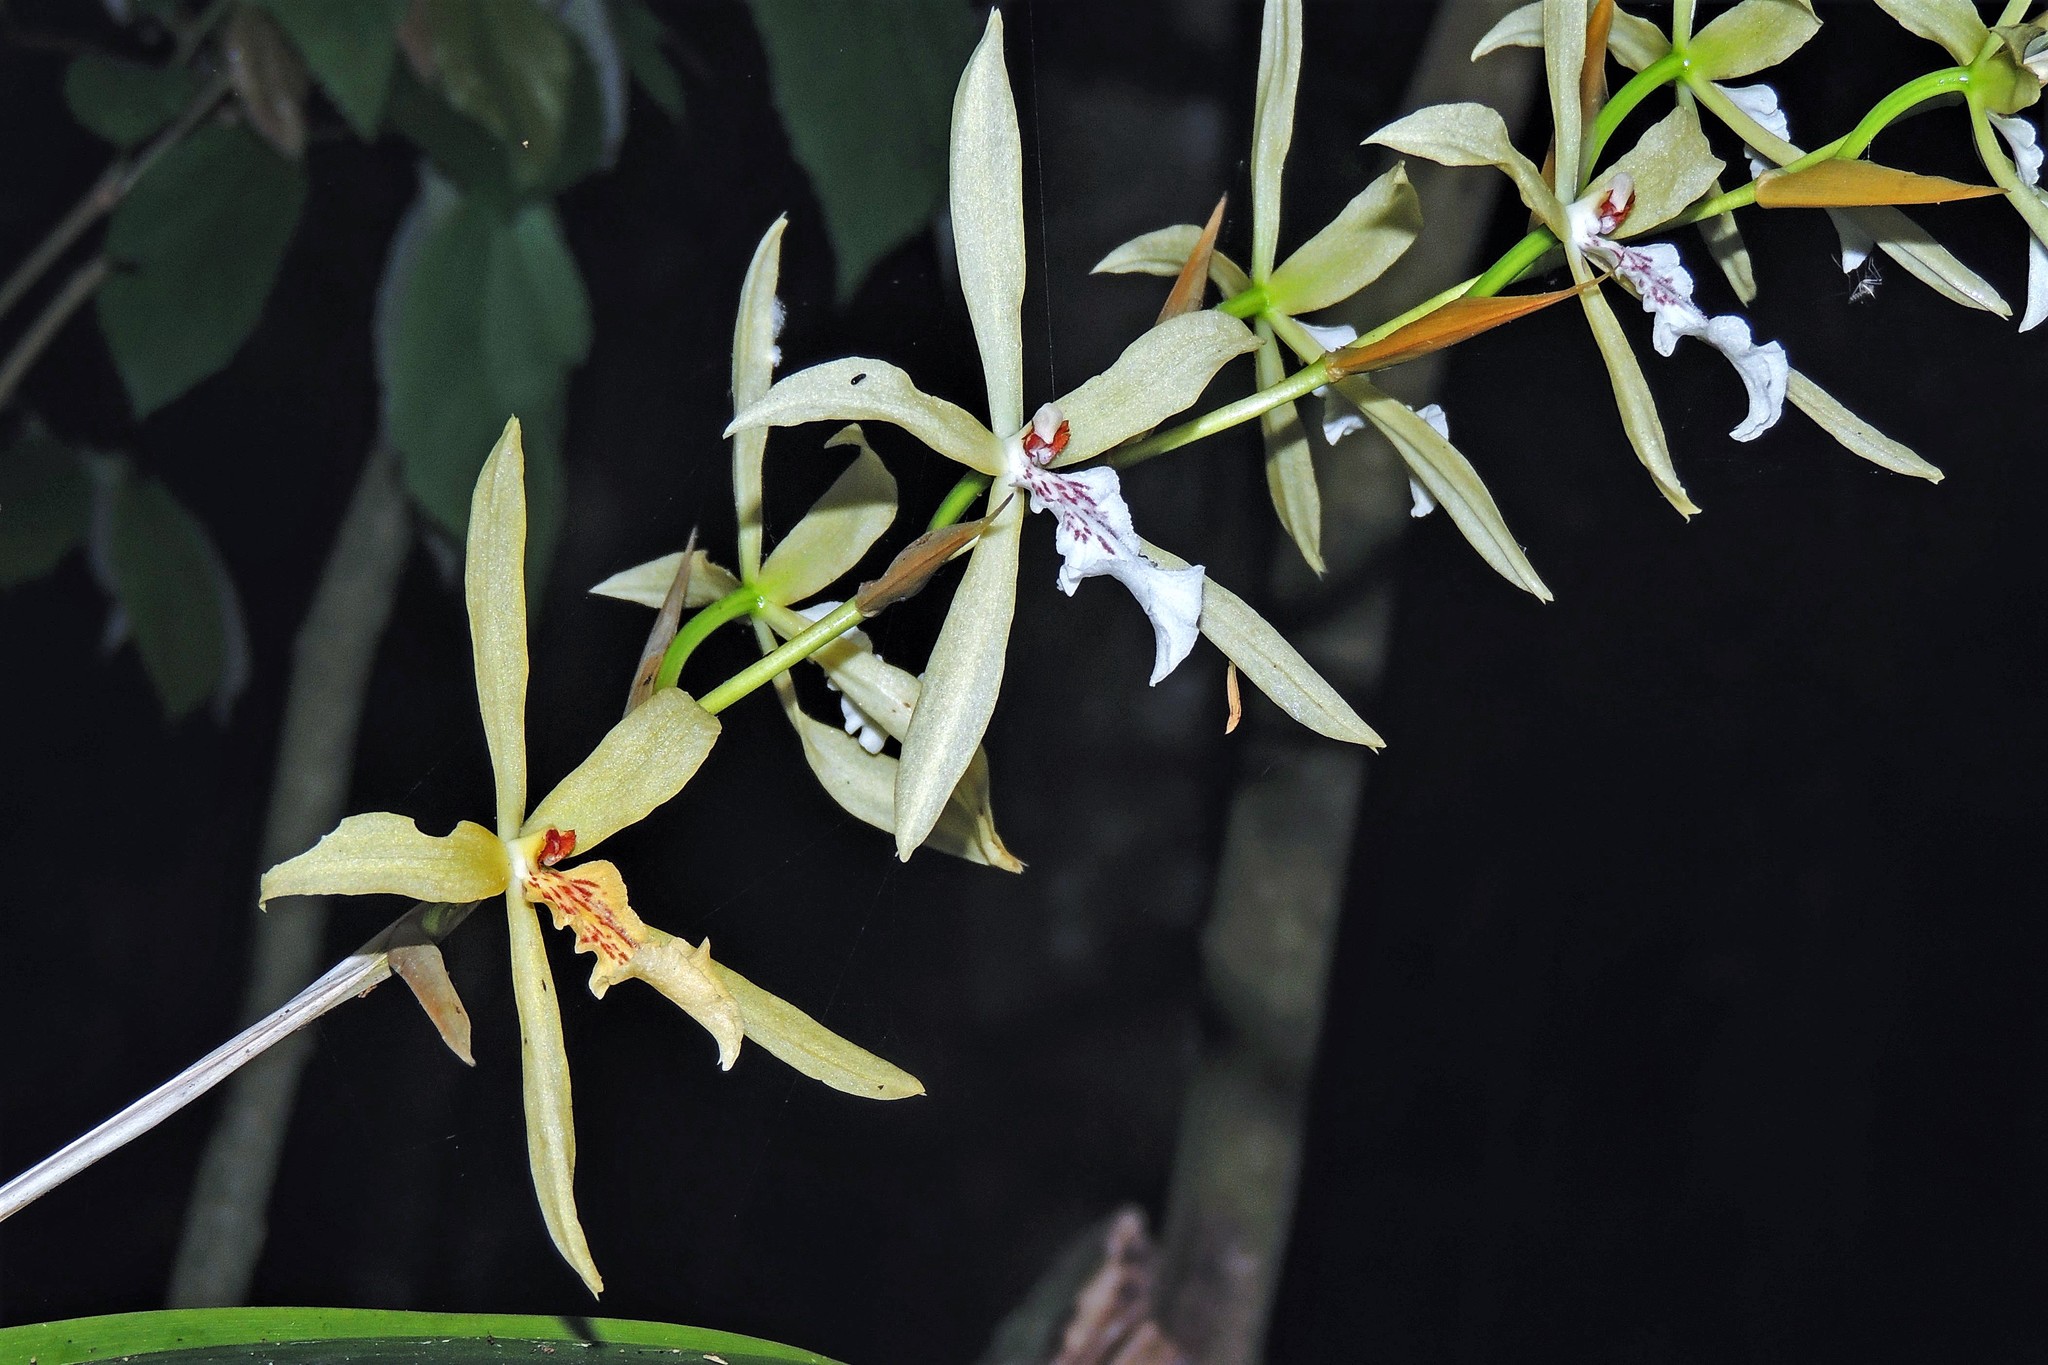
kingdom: Plantae
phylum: Tracheophyta
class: Liliopsida
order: Asparagales
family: Orchidaceae
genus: Miltonia
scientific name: Miltonia flavescens
